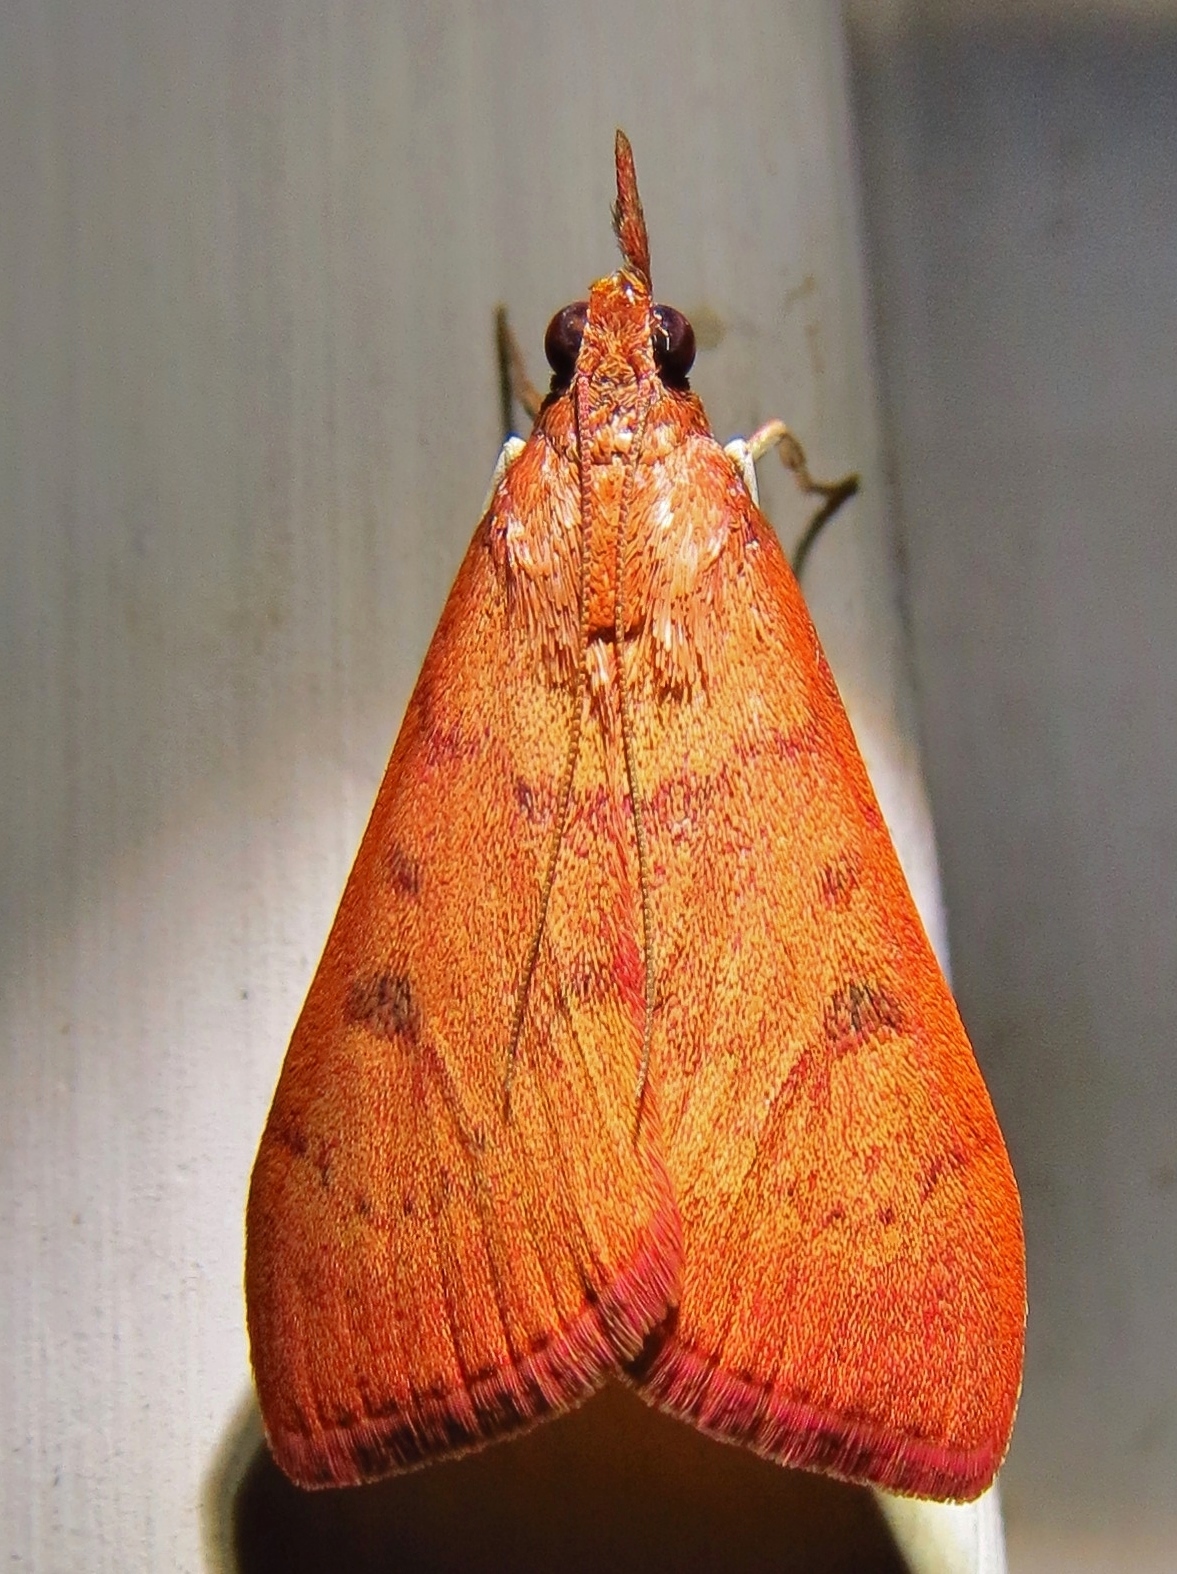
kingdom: Animalia
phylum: Arthropoda
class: Insecta
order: Lepidoptera
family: Crambidae
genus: Uresiphita
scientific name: Uresiphita reversalis
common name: Genista broom moth
